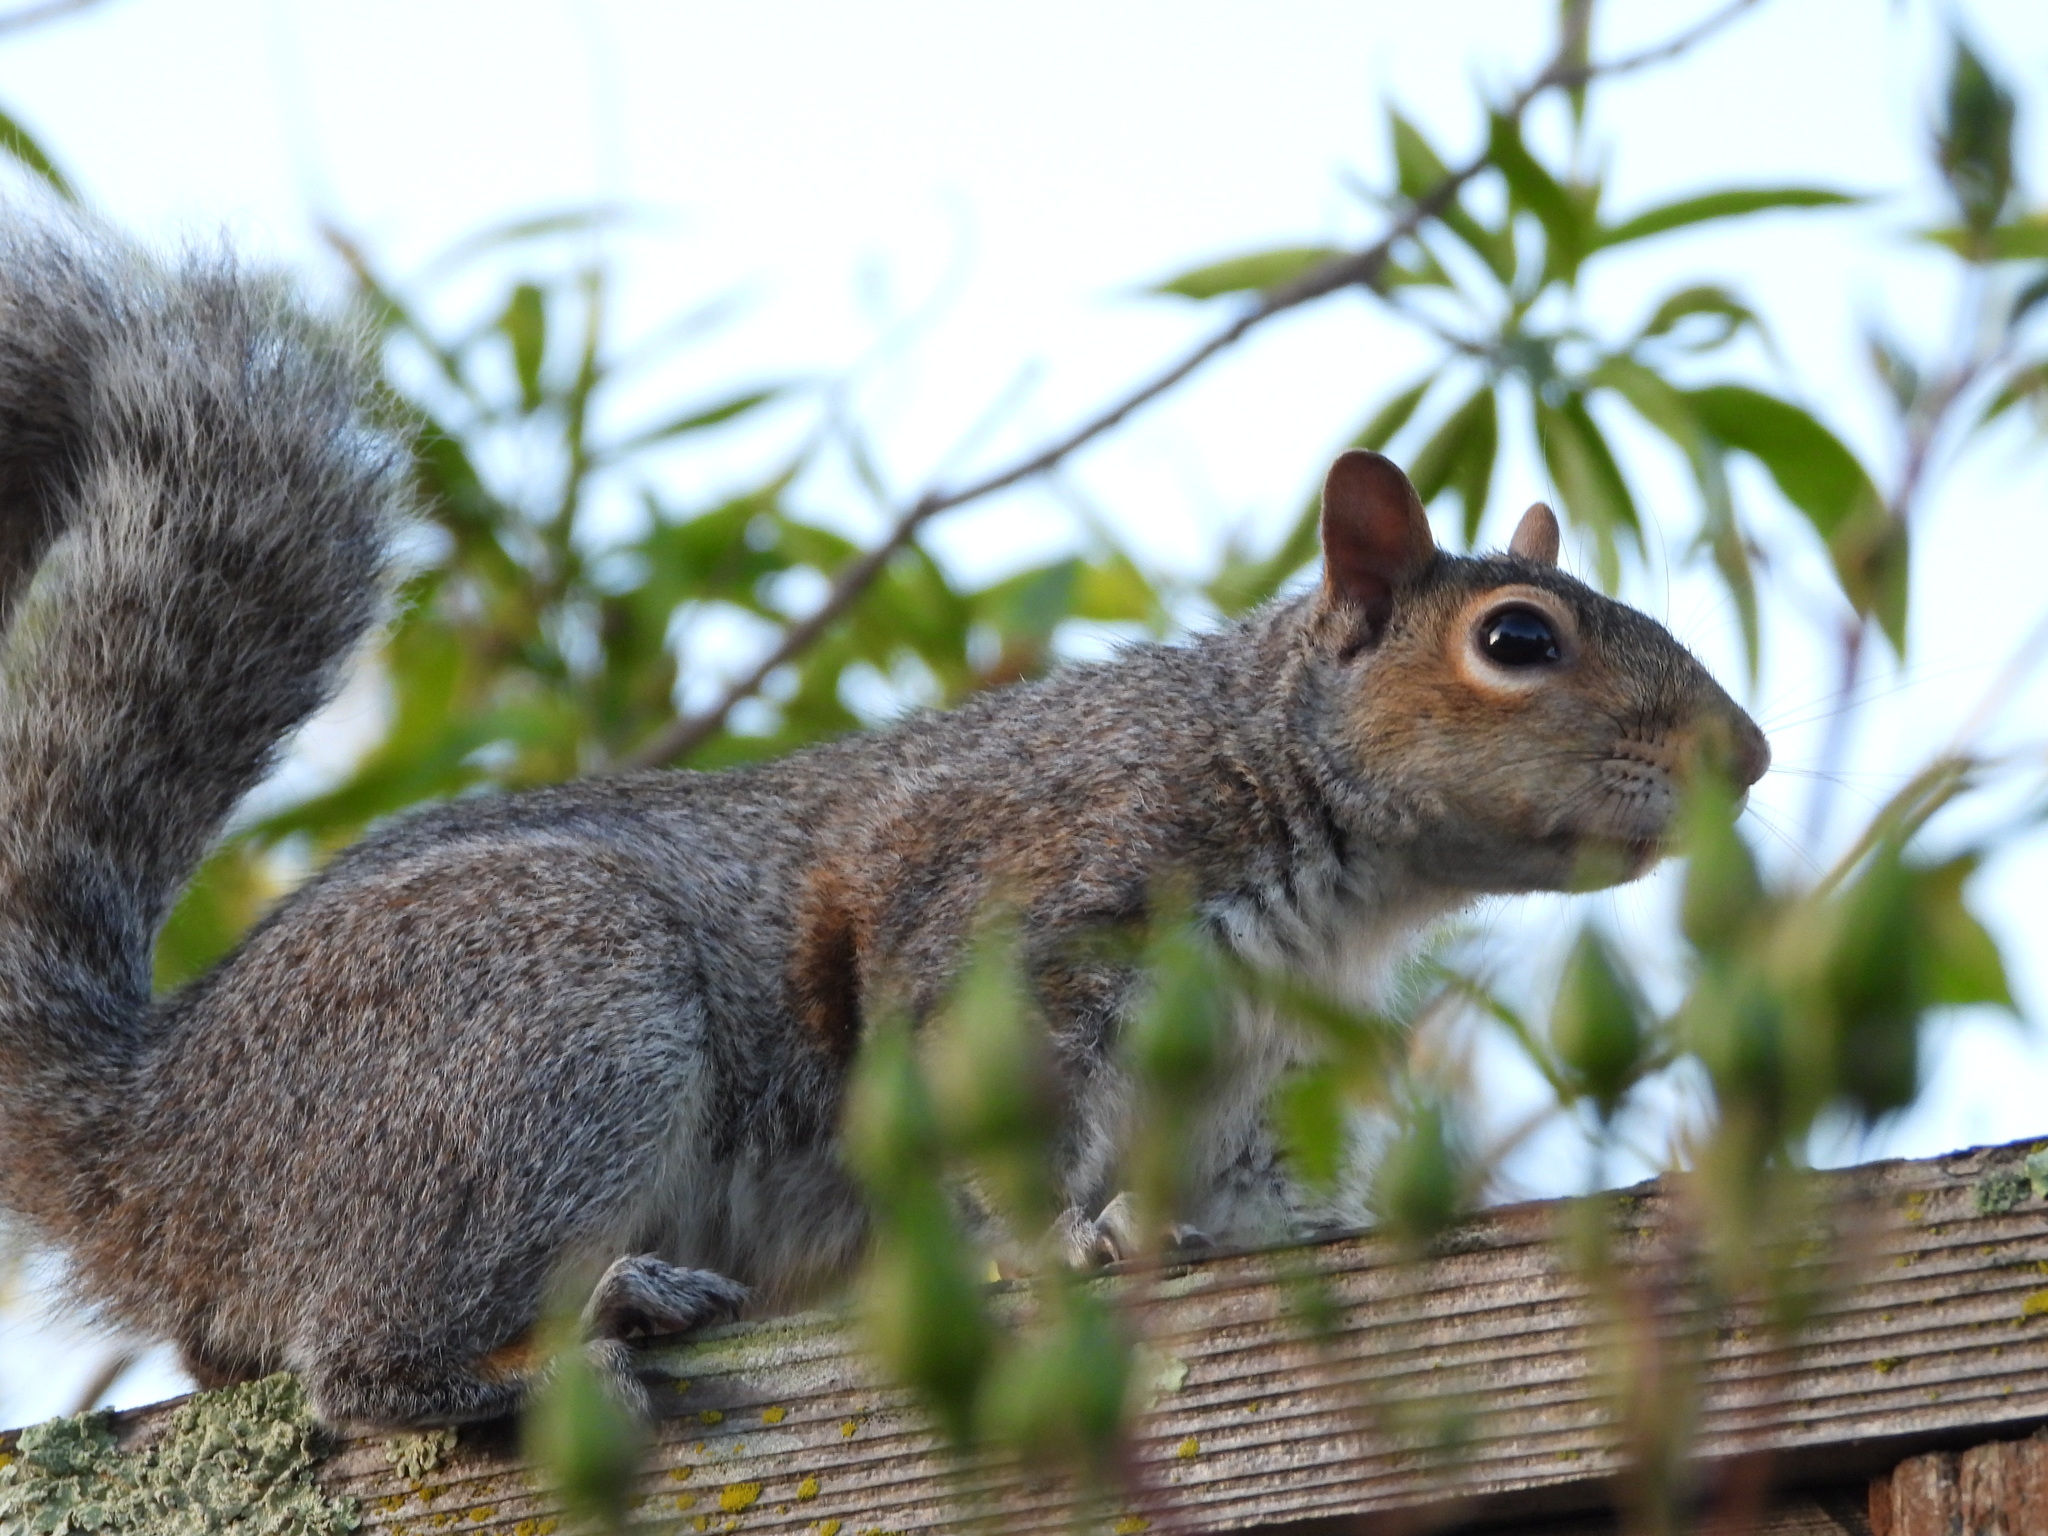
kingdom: Animalia
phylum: Chordata
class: Mammalia
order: Rodentia
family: Sciuridae
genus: Sciurus
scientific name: Sciurus carolinensis
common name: Eastern gray squirrel
